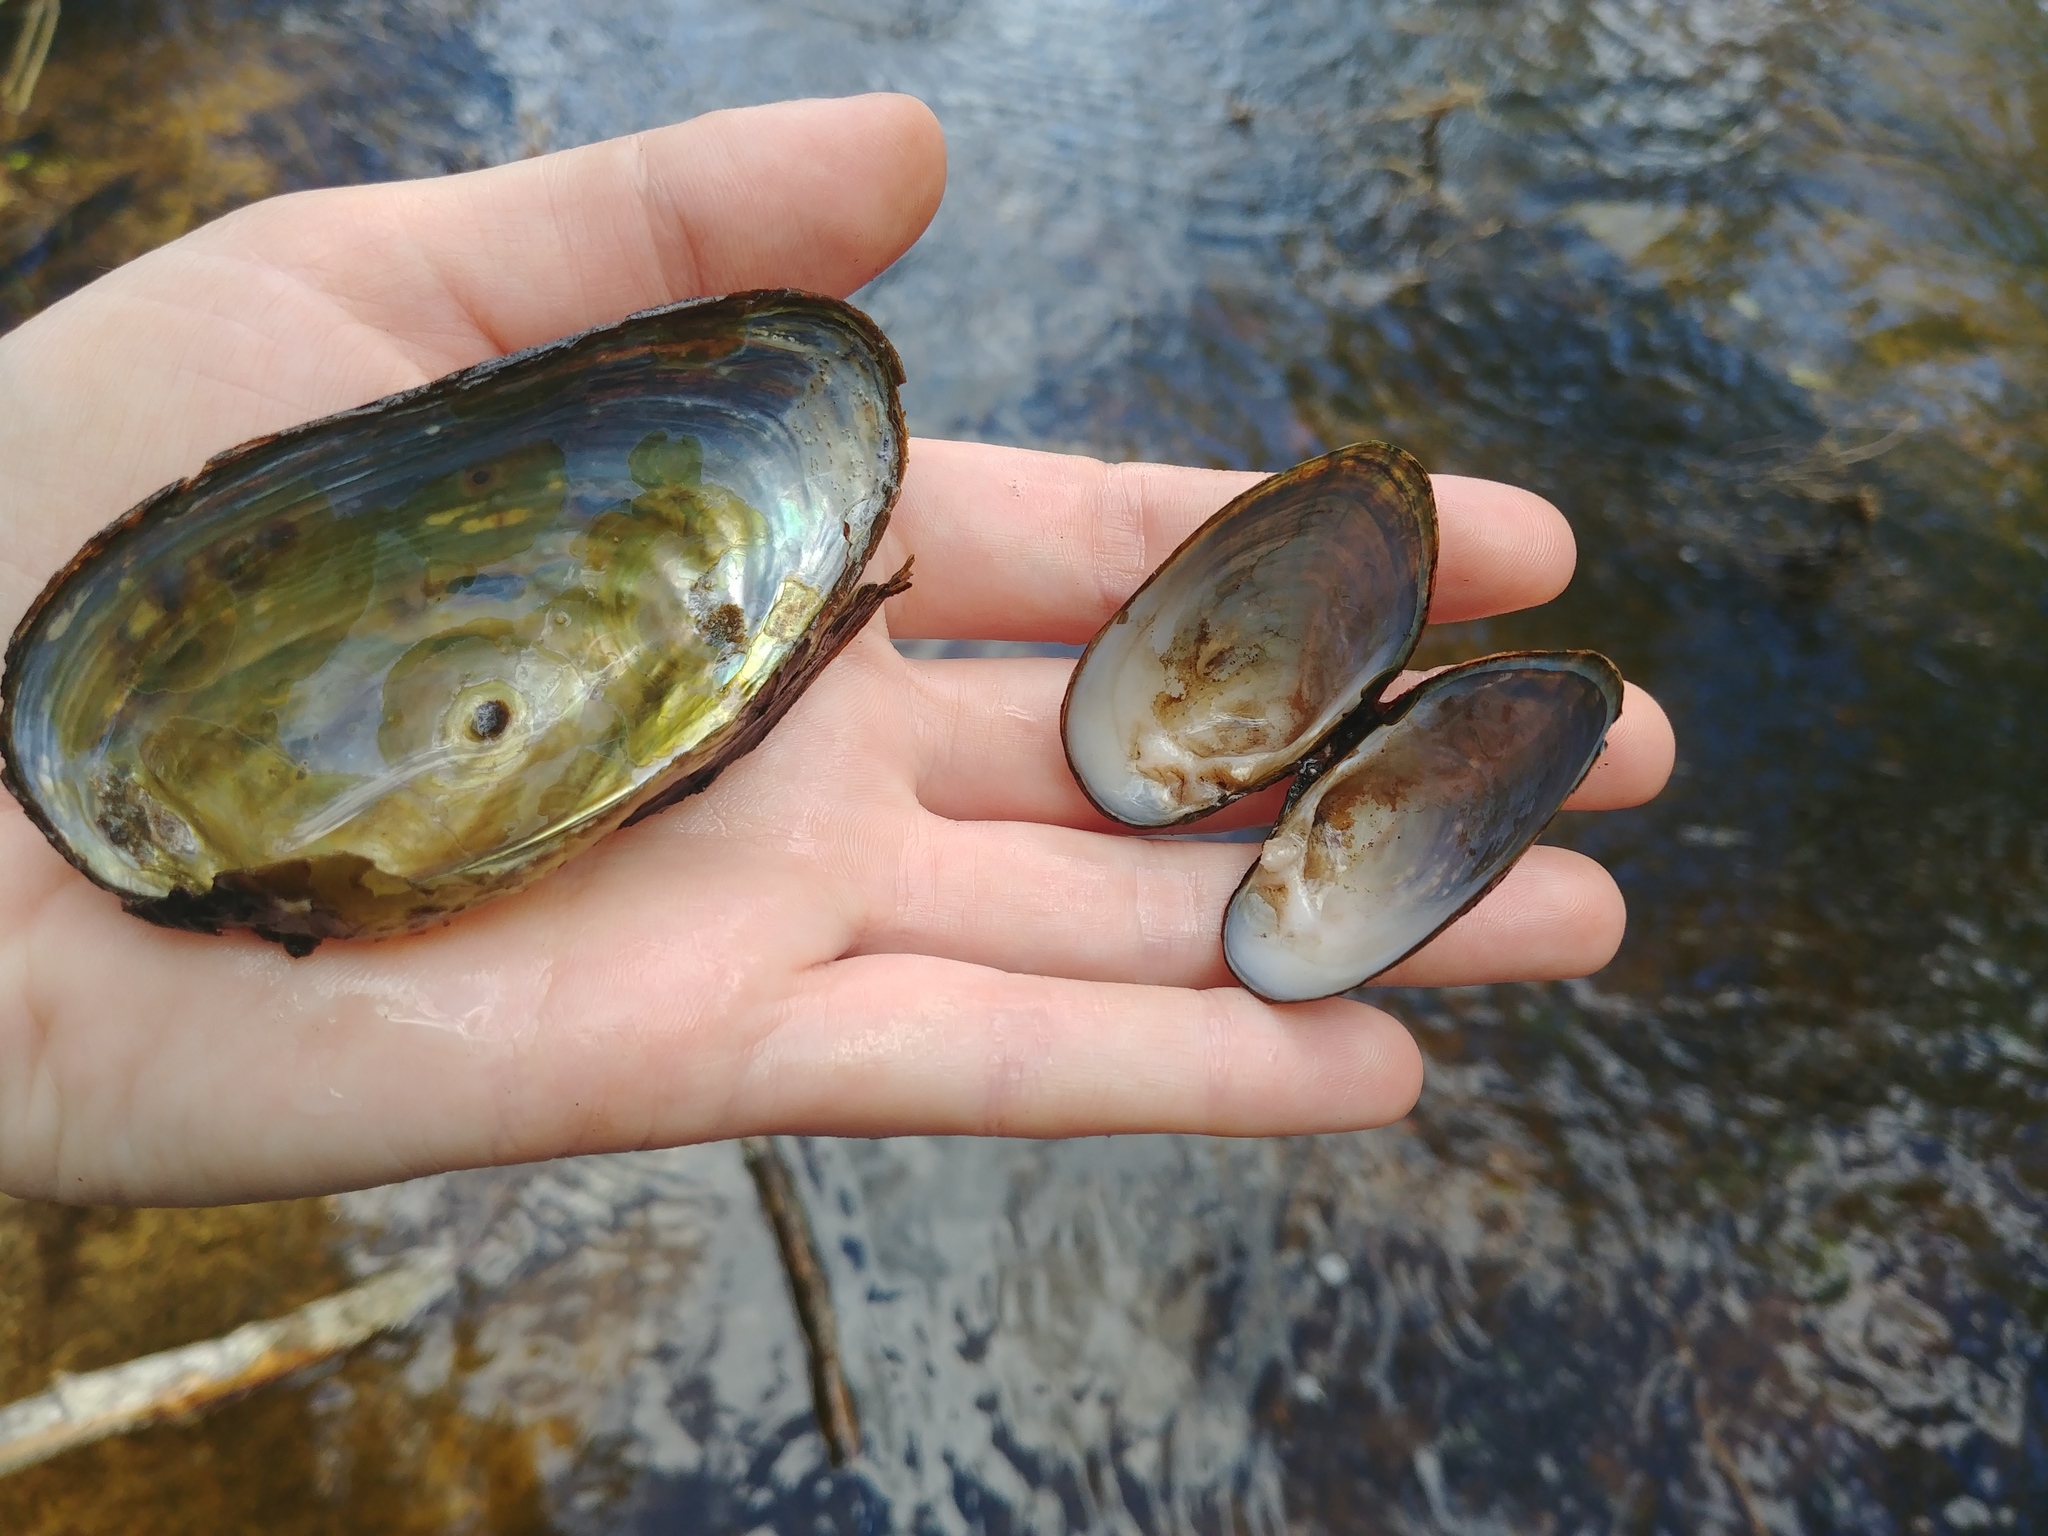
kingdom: Animalia
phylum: Mollusca
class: Bivalvia
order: Unionida
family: Unionidae
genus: Alasmidonta
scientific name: Alasmidonta undulata
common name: Triangle floater
